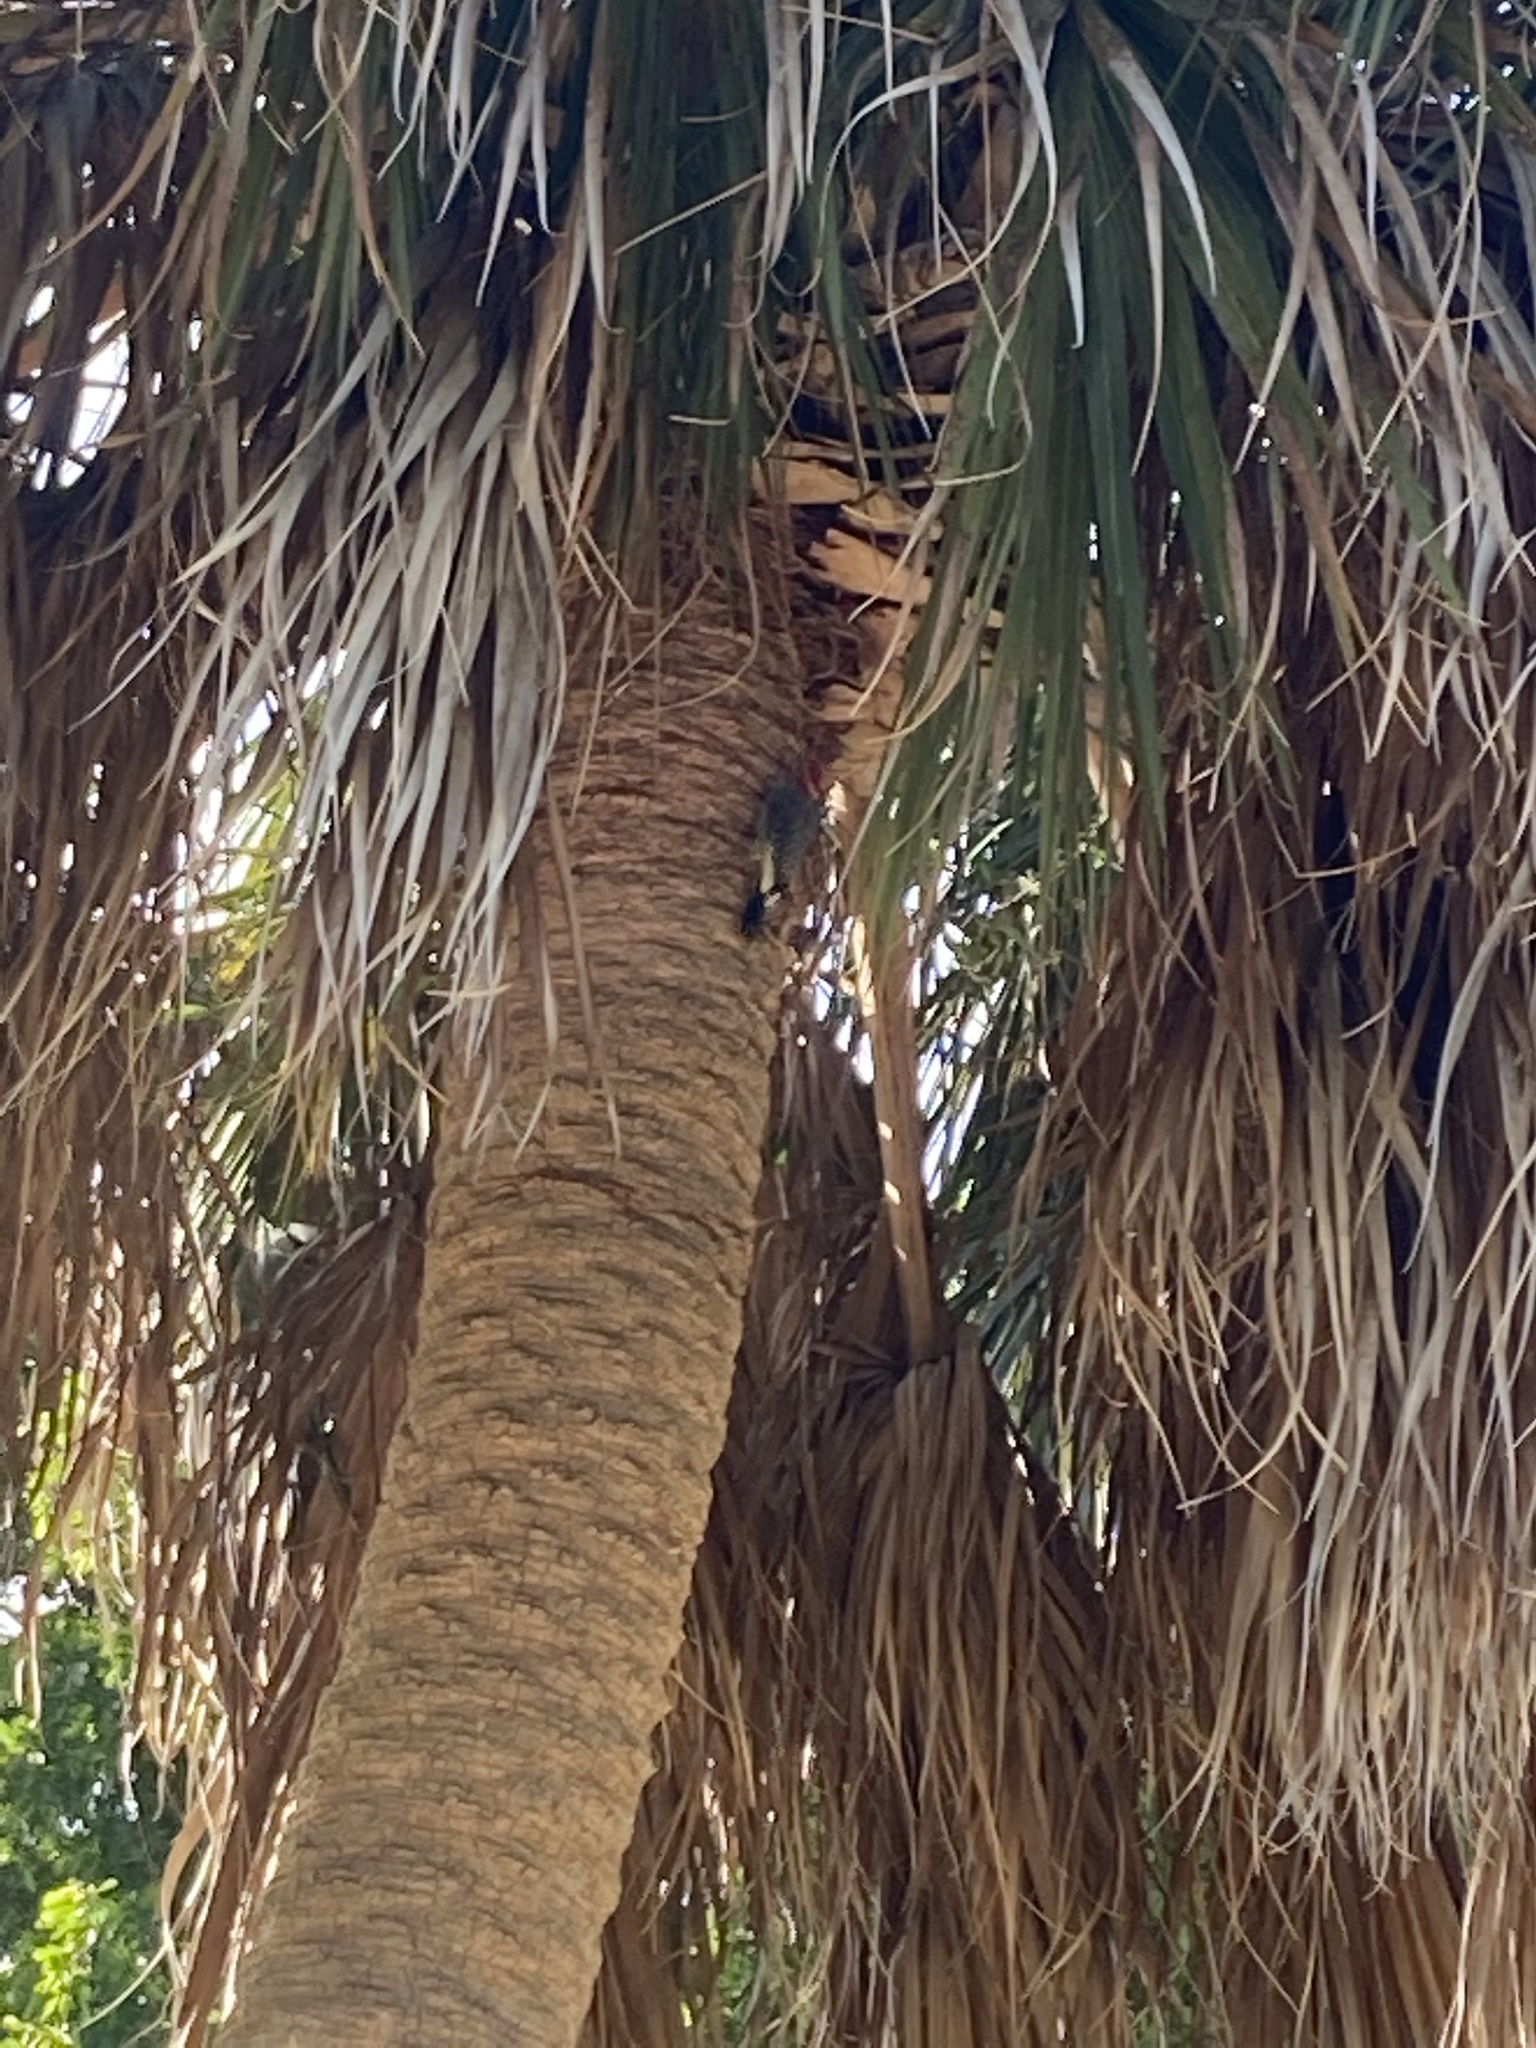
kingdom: Animalia
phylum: Chordata
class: Aves
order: Piciformes
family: Picidae
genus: Melanerpes
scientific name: Melanerpes carolinus
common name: Red-bellied woodpecker
